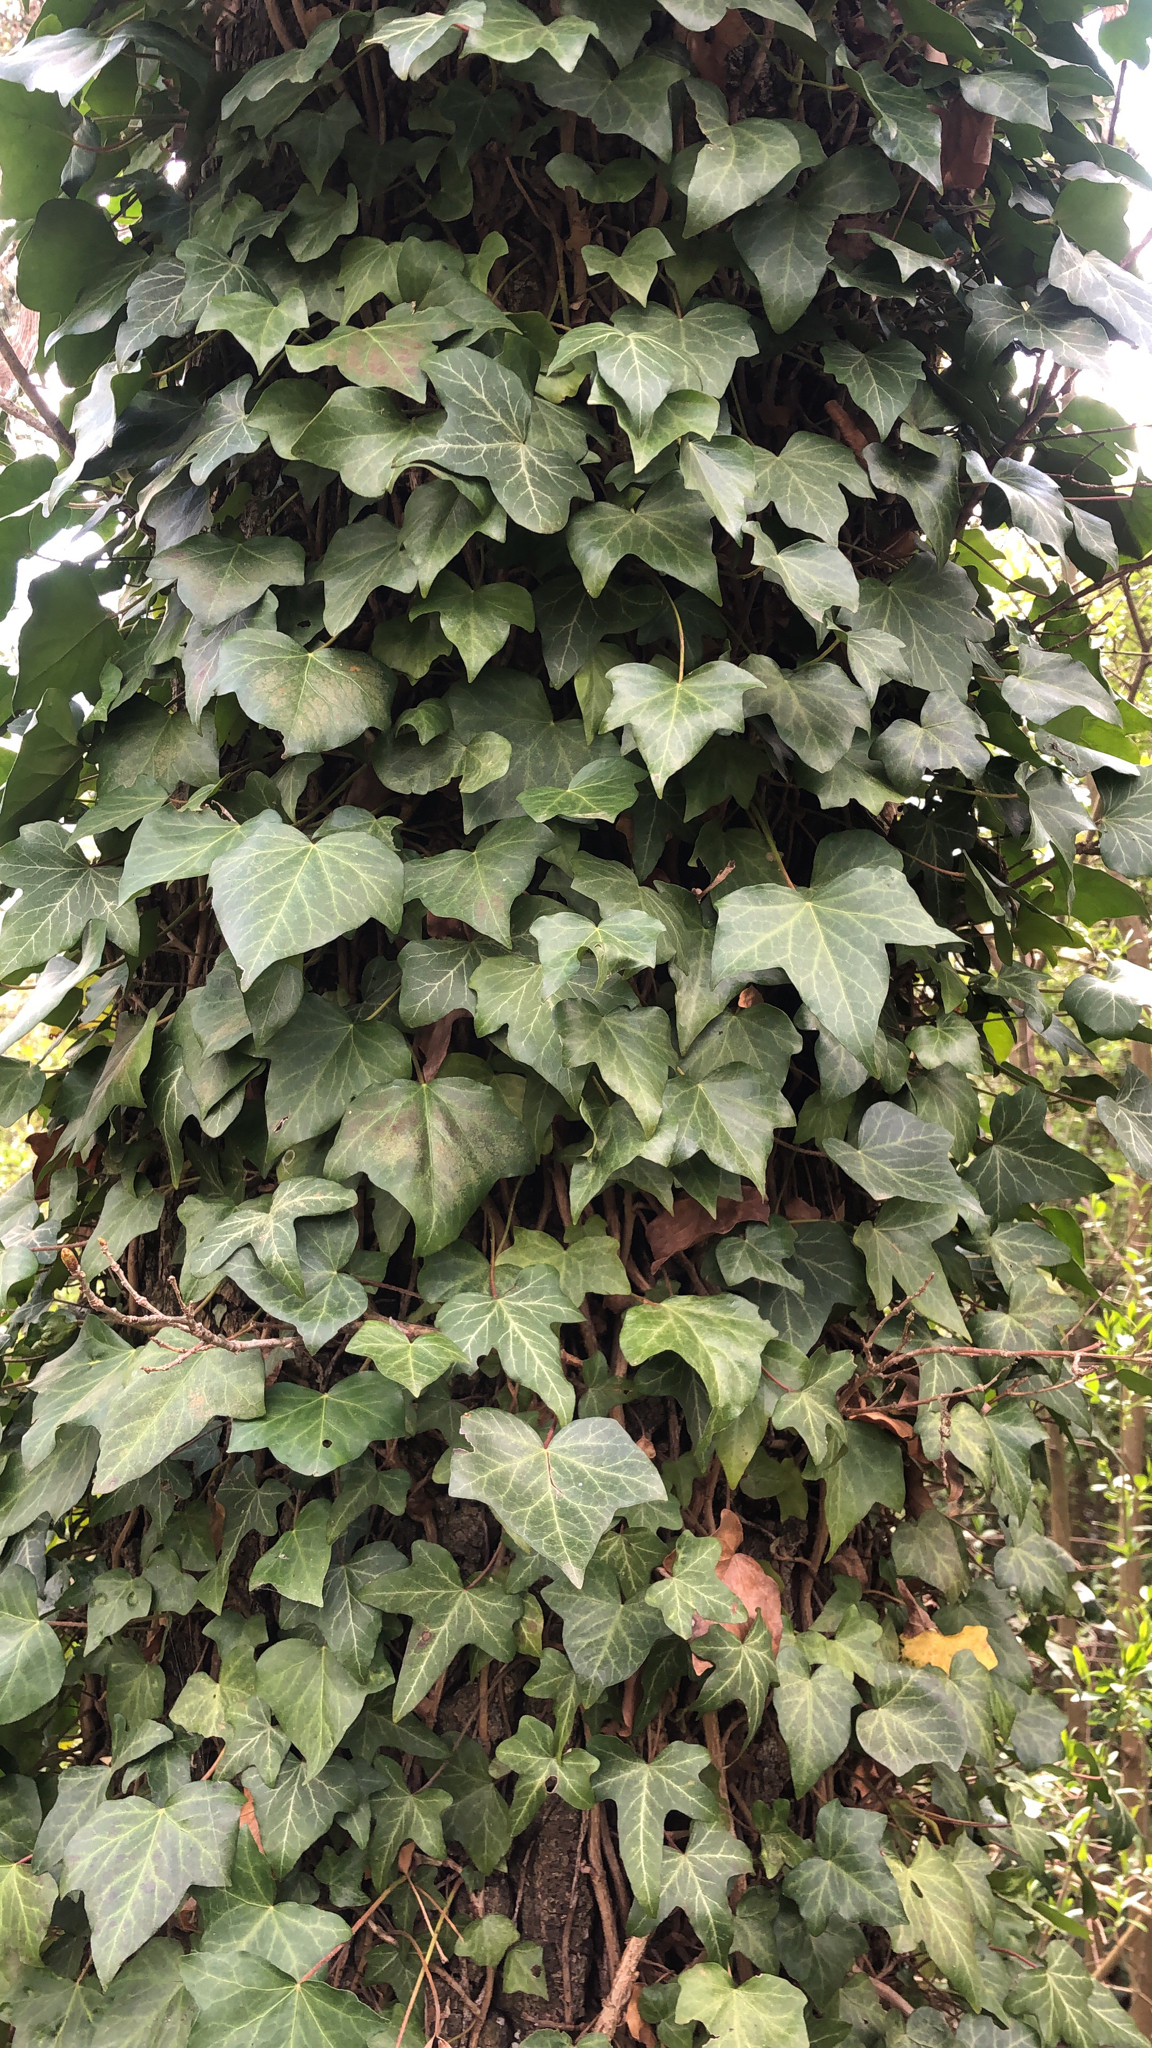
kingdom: Plantae
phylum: Tracheophyta
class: Magnoliopsida
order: Apiales
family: Araliaceae
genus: Hedera
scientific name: Hedera helix
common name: Ivy
